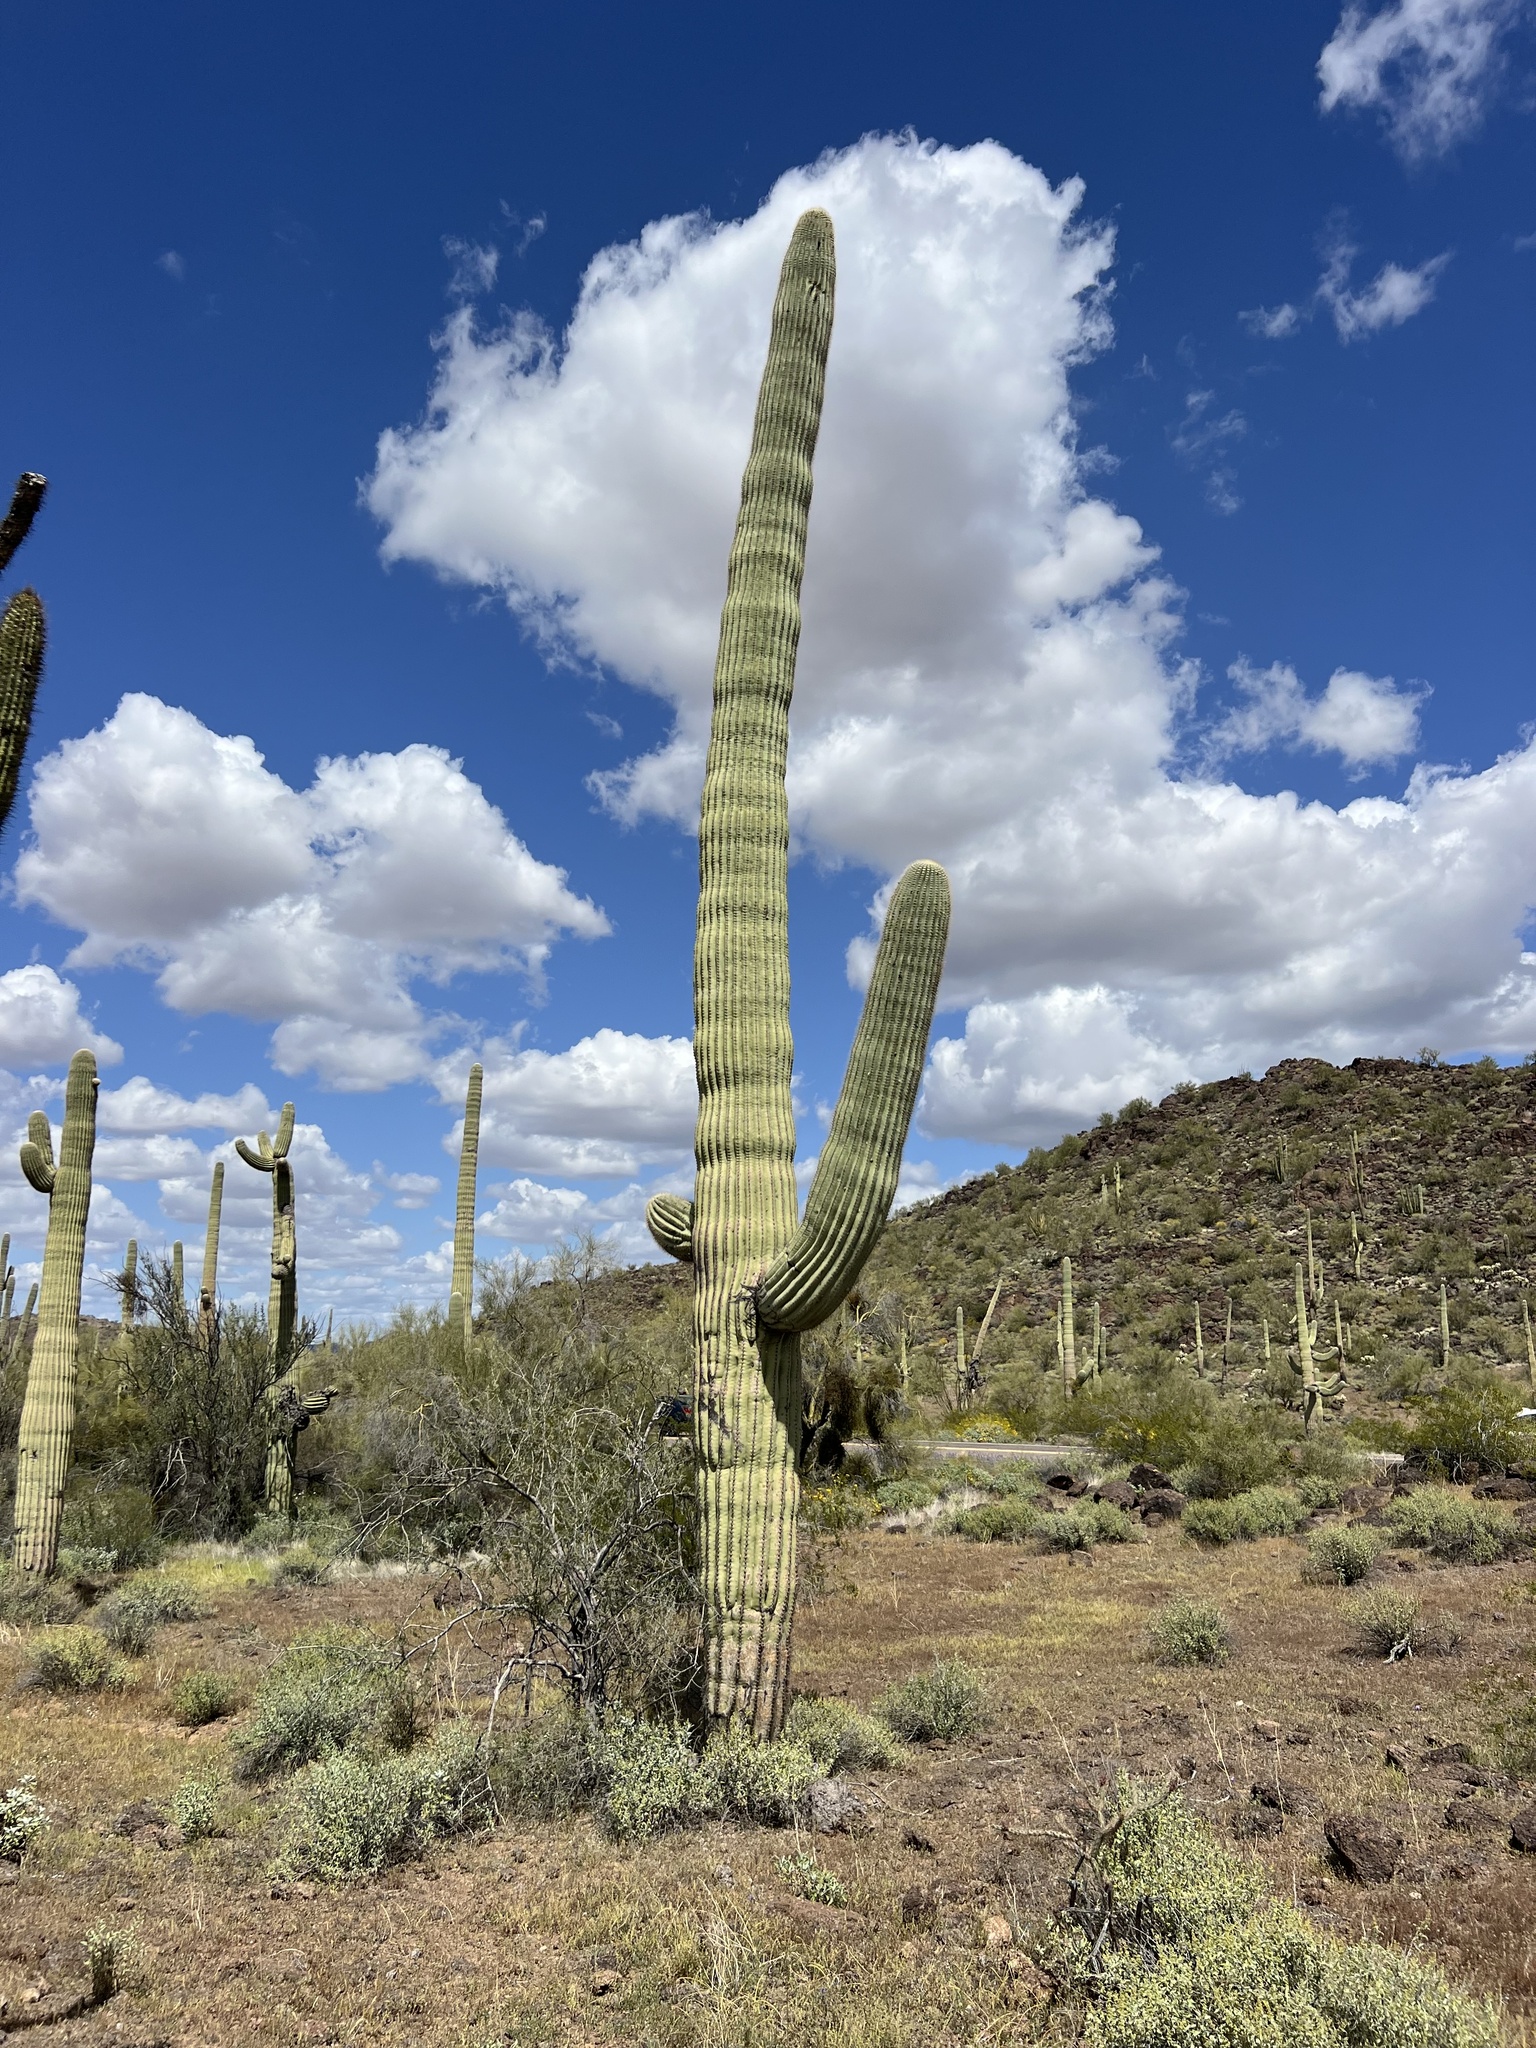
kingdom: Plantae
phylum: Tracheophyta
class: Magnoliopsida
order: Caryophyllales
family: Cactaceae
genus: Carnegiea
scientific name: Carnegiea gigantea
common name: Saguaro
